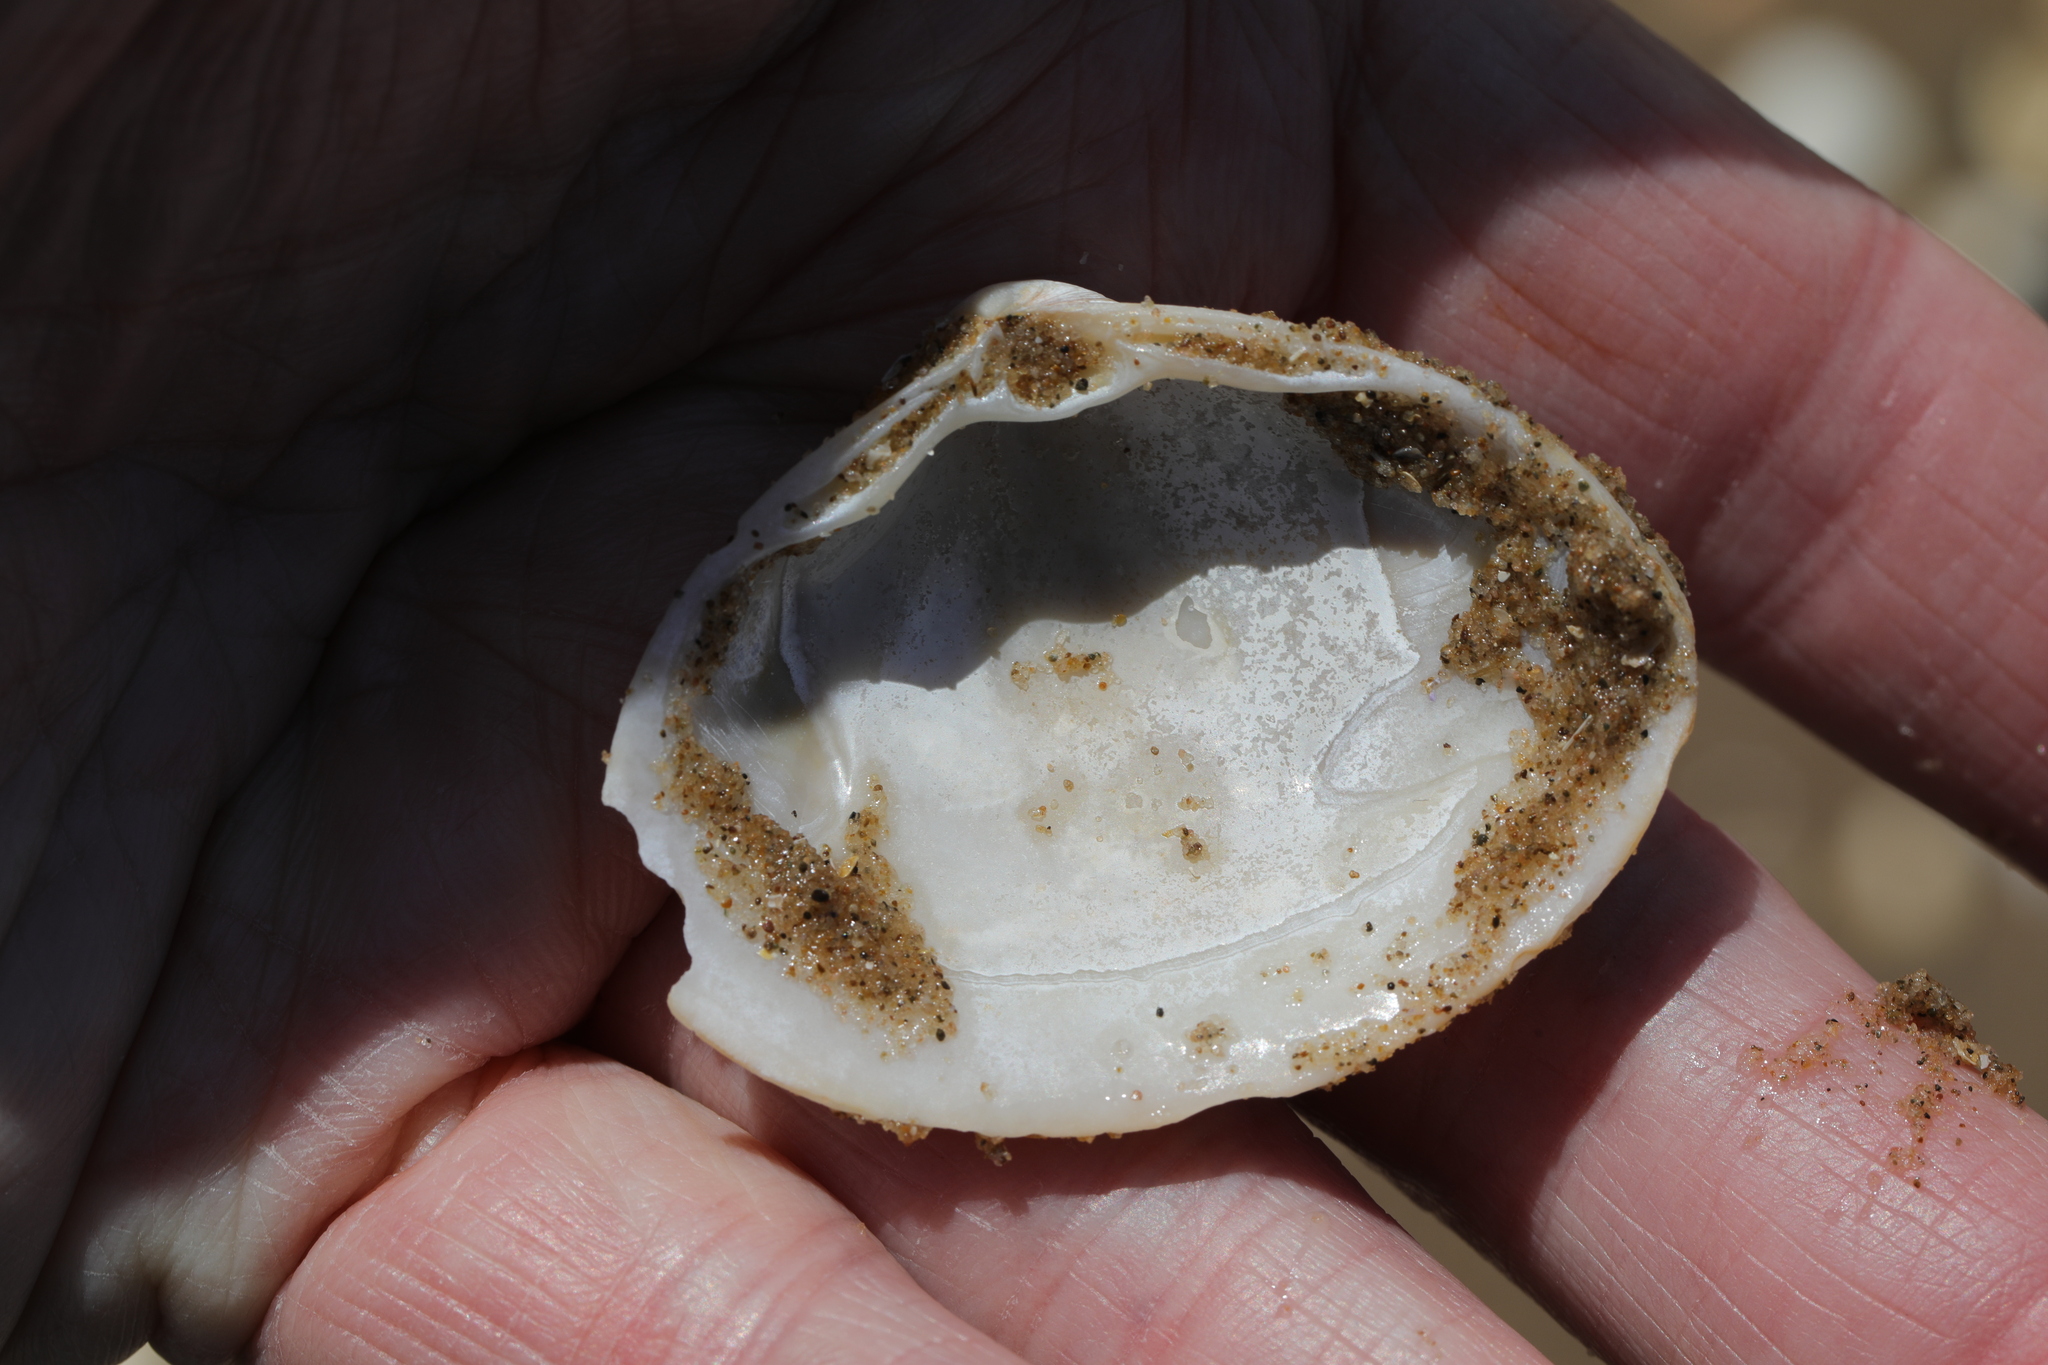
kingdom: Animalia
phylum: Mollusca
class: Bivalvia
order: Venerida
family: Mactridae
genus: Spisula
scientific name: Spisula solida
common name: Thick trough shell
